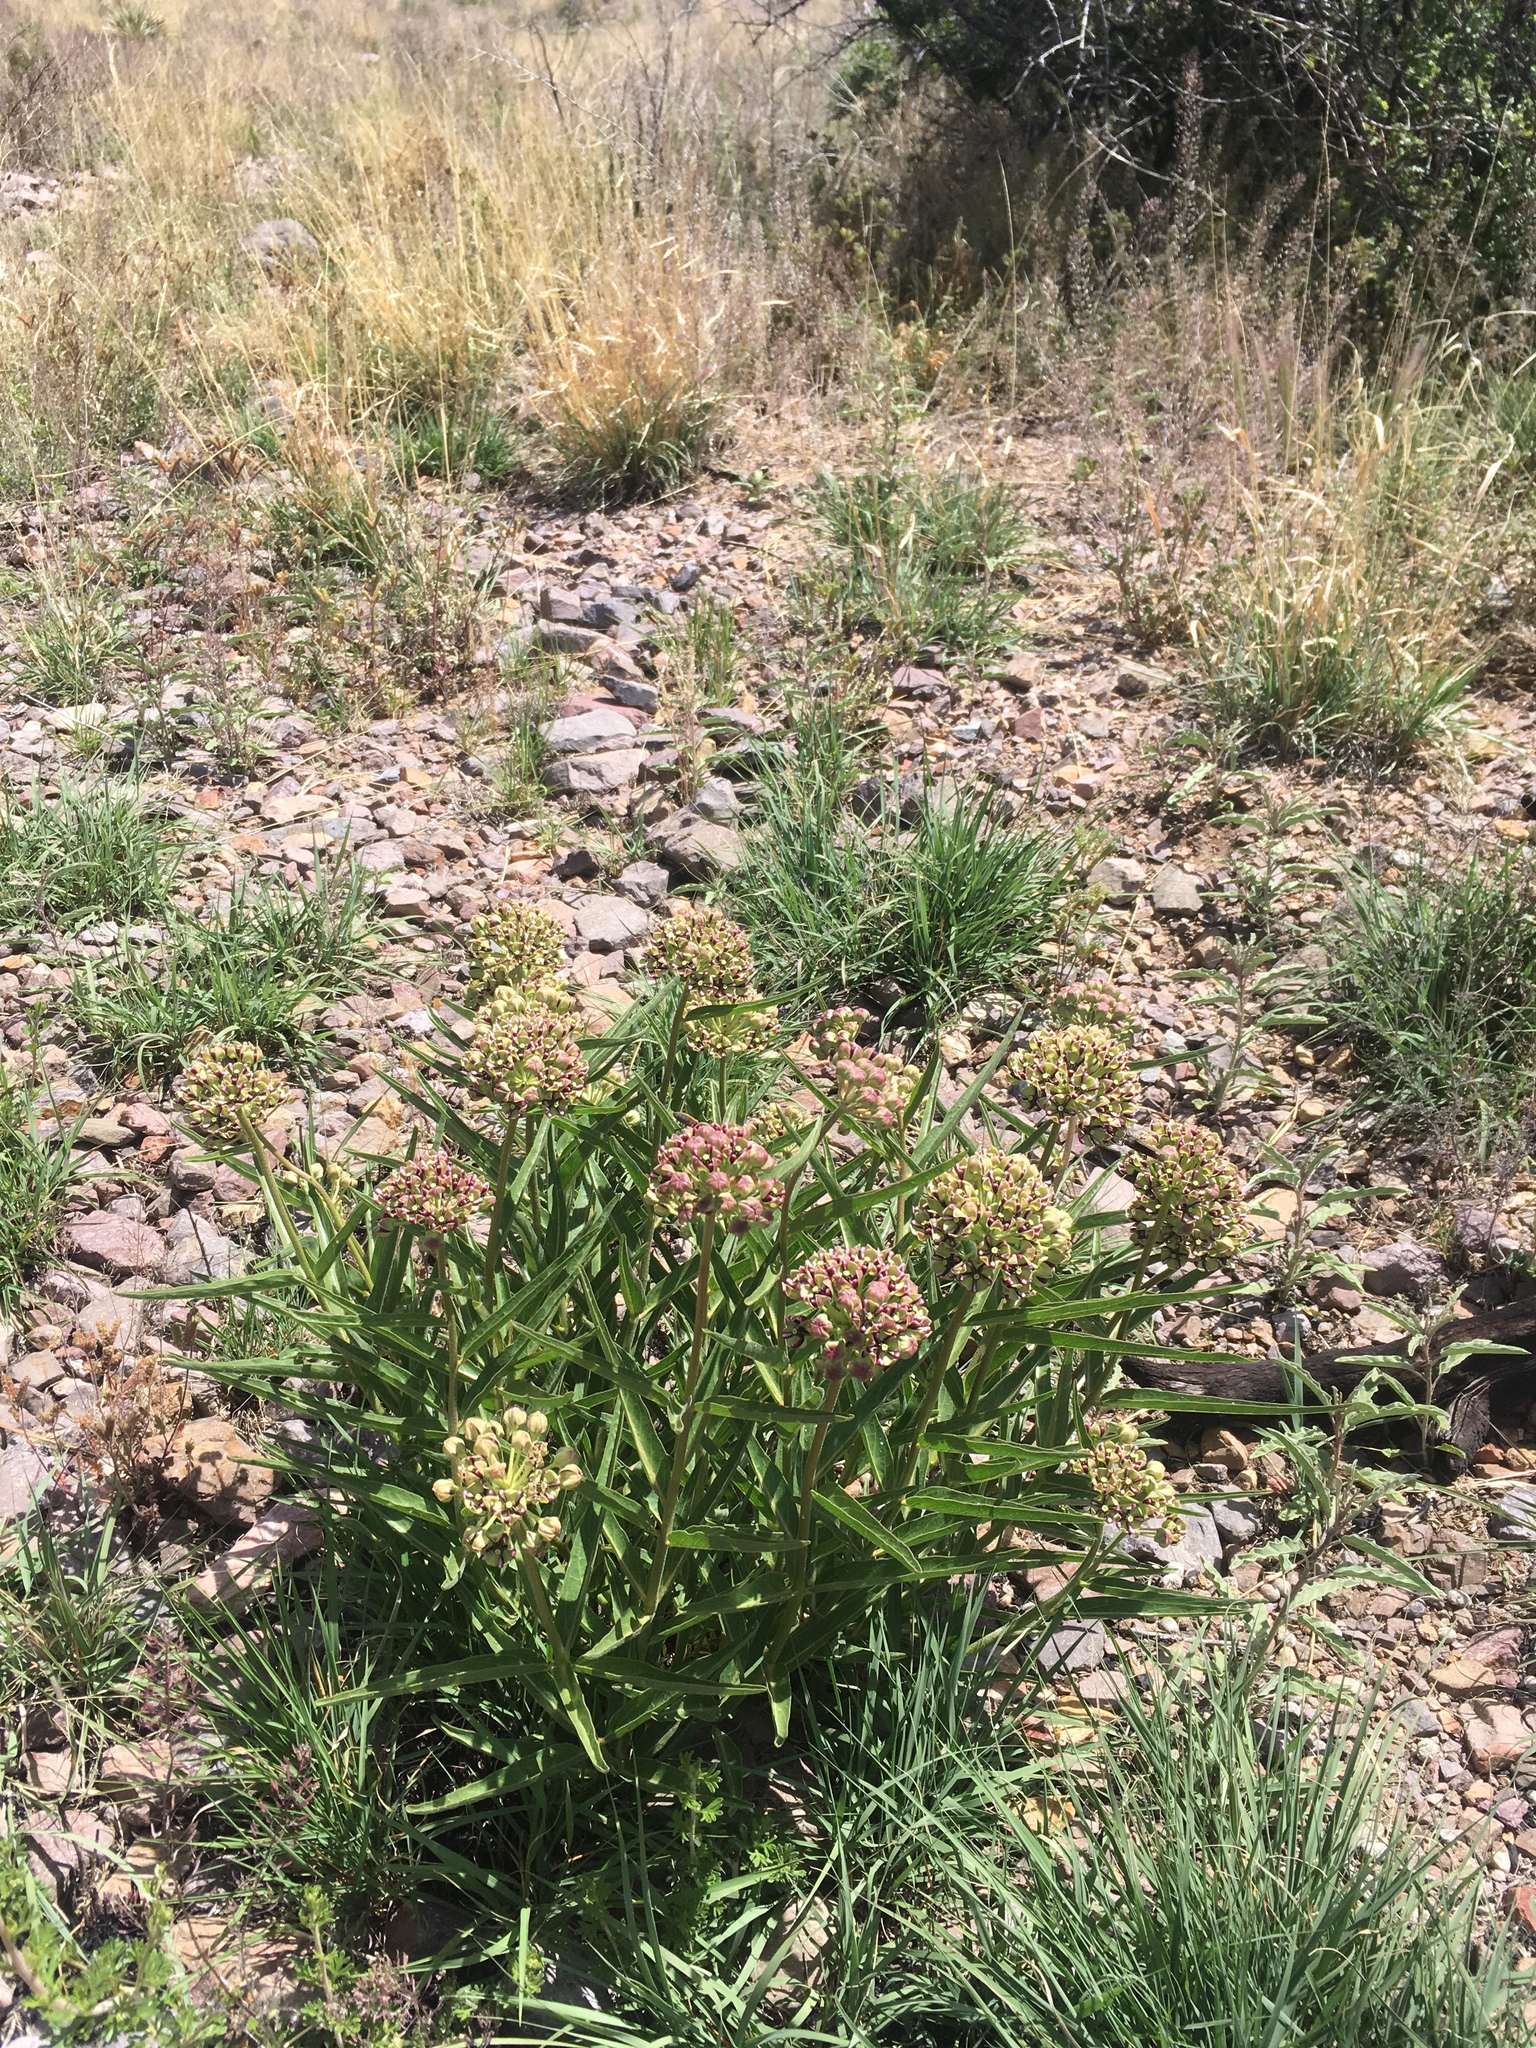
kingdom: Plantae
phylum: Tracheophyta
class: Magnoliopsida
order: Gentianales
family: Apocynaceae
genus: Asclepias
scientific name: Asclepias asperula
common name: Antelope horns
